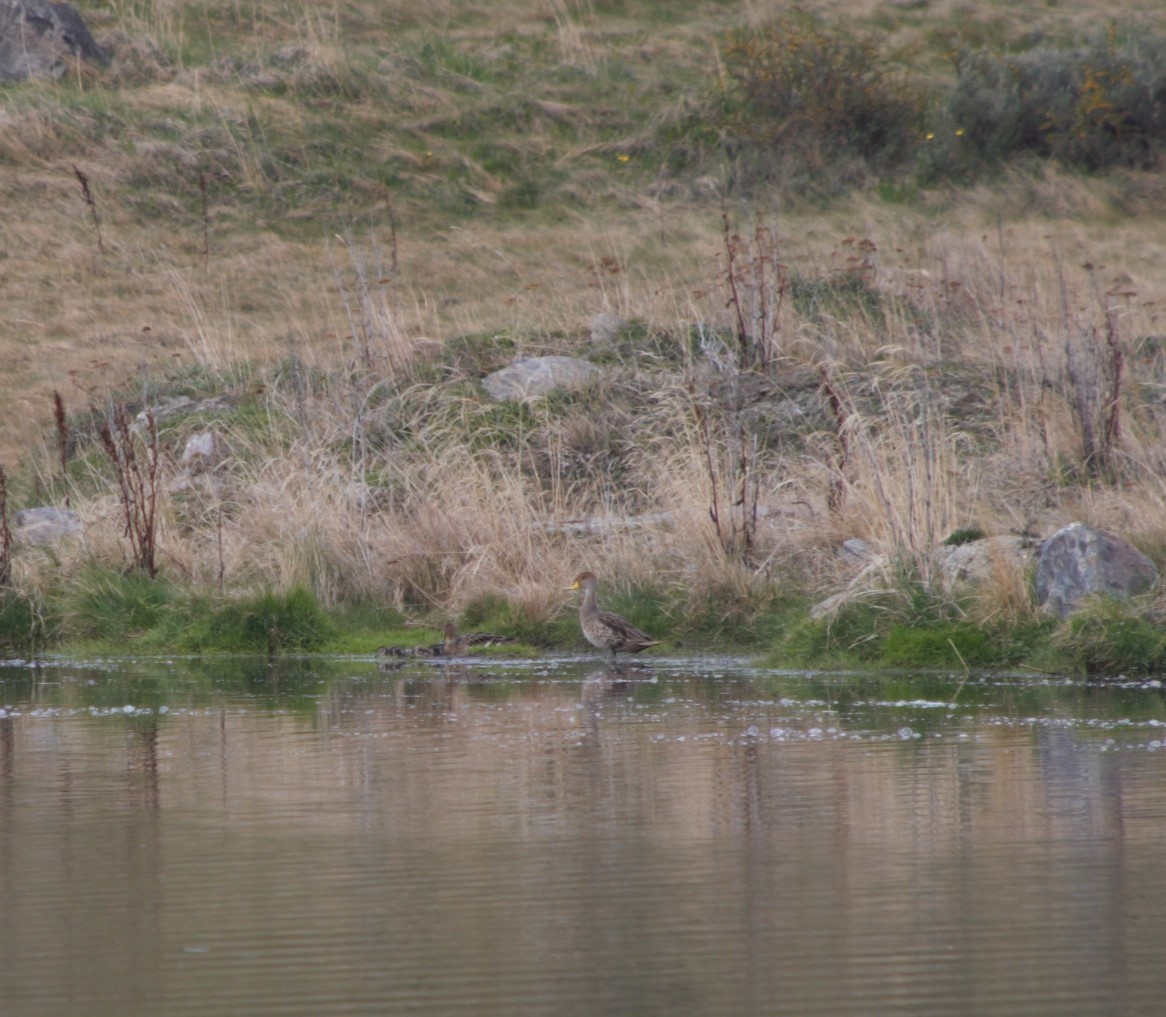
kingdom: Animalia
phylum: Chordata
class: Aves
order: Anseriformes
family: Anatidae
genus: Anas
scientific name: Anas georgica
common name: Yellow-billed pintail
